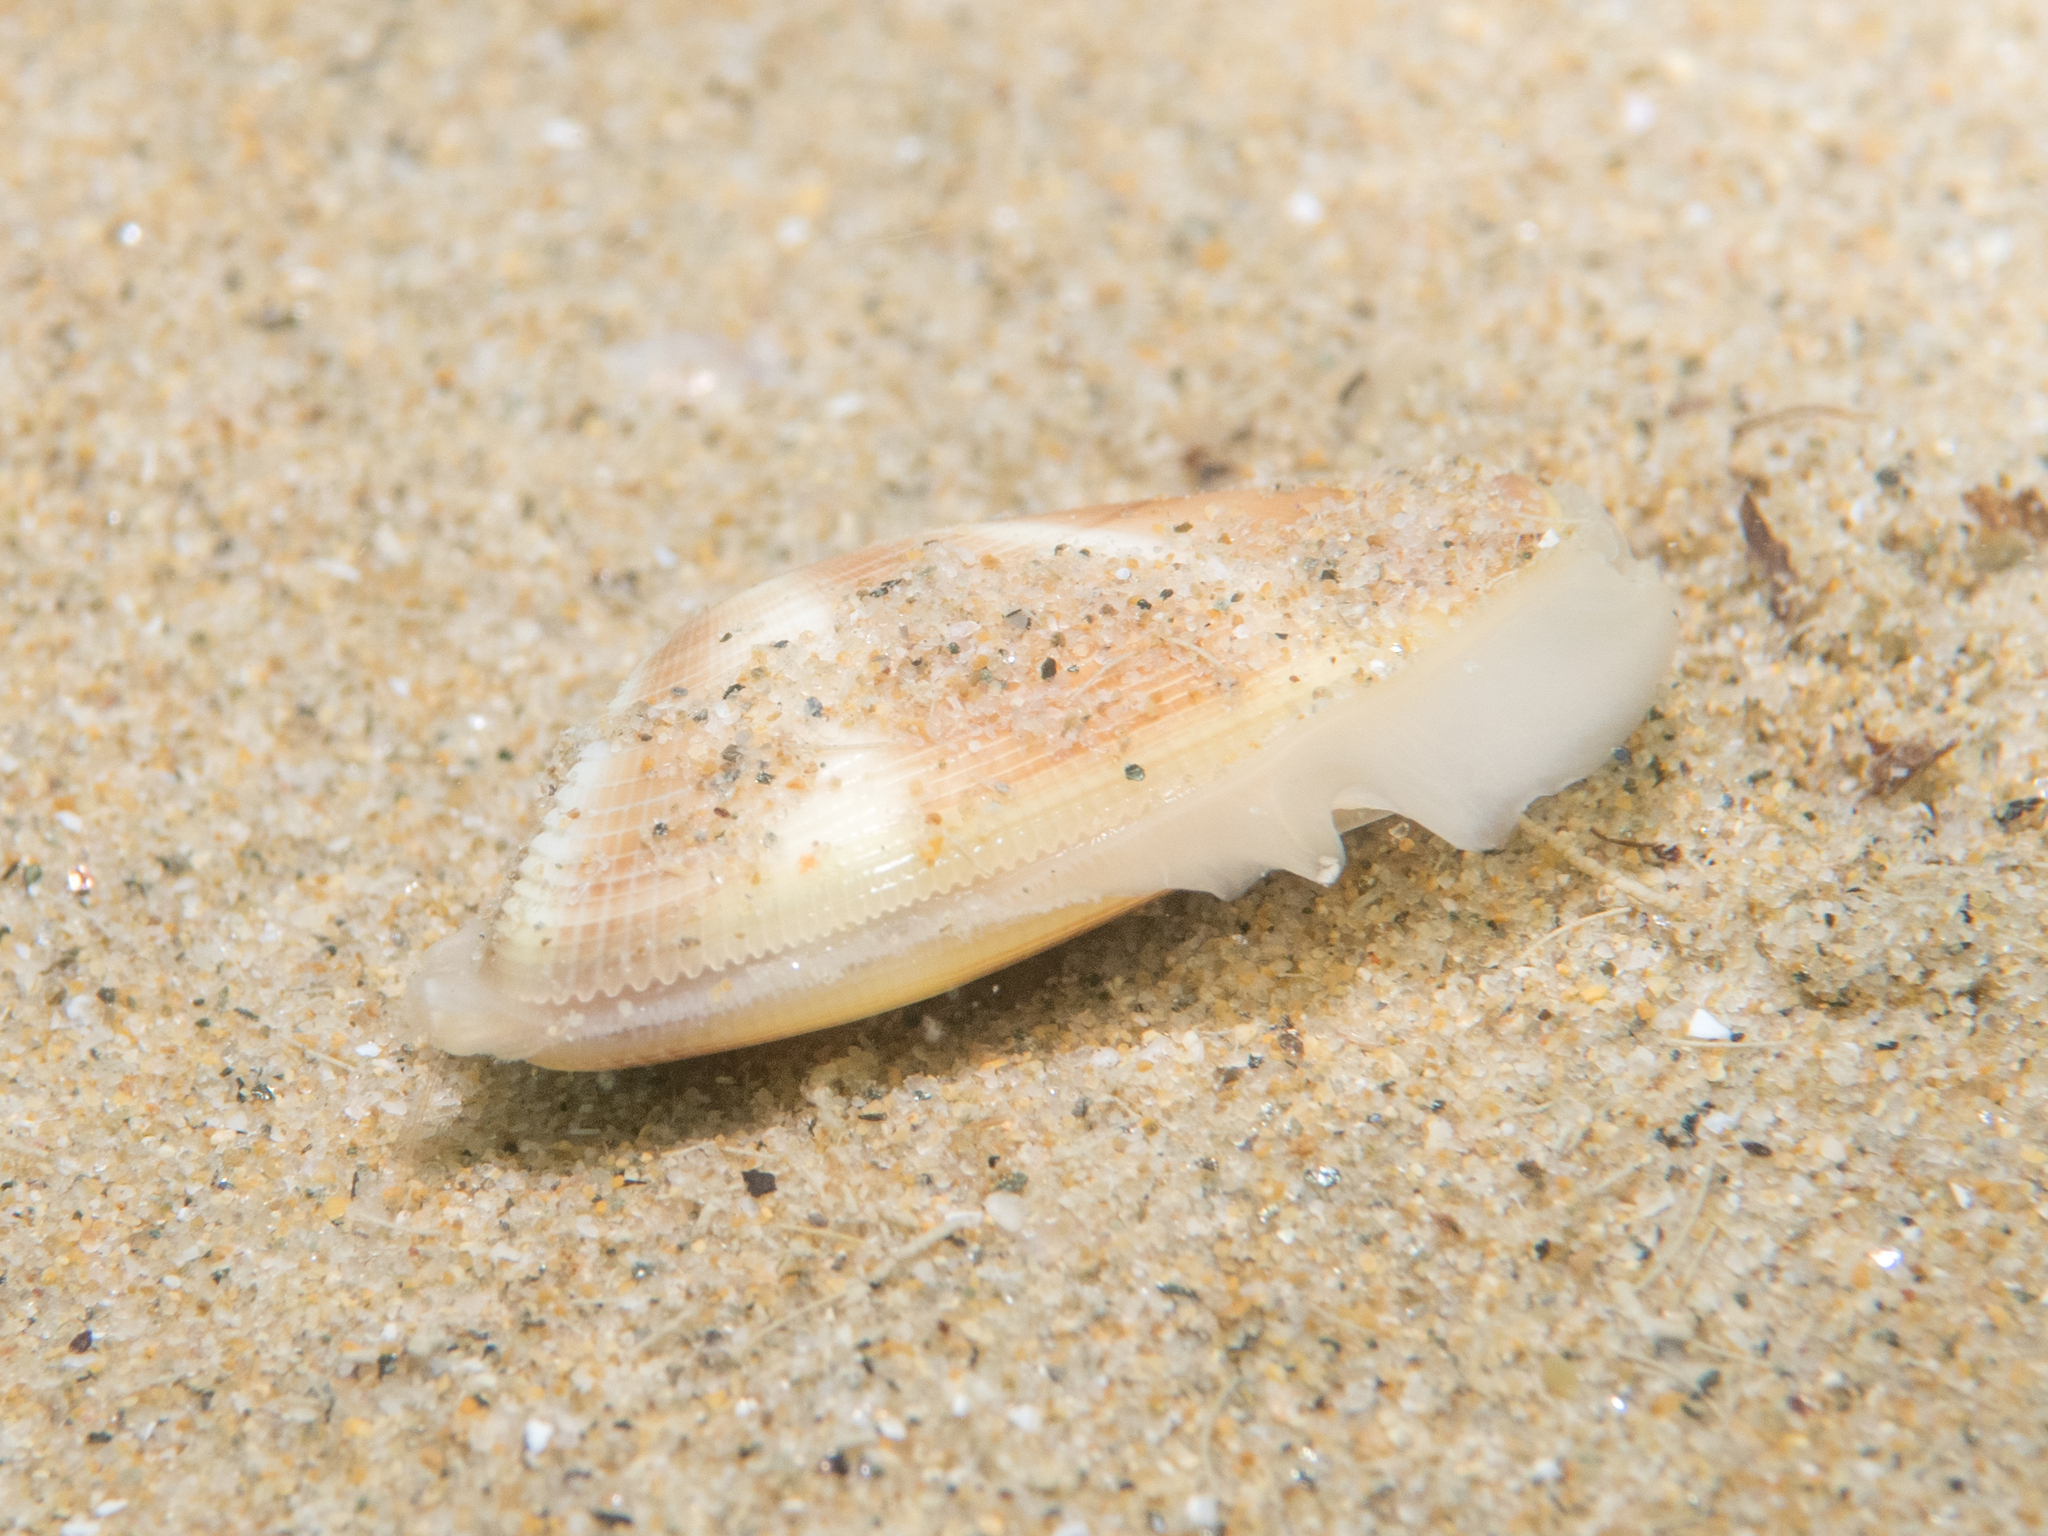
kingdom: Animalia
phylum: Mollusca
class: Bivalvia
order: Cardiida
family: Donacidae
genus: Donax
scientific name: Donax semistriatus
